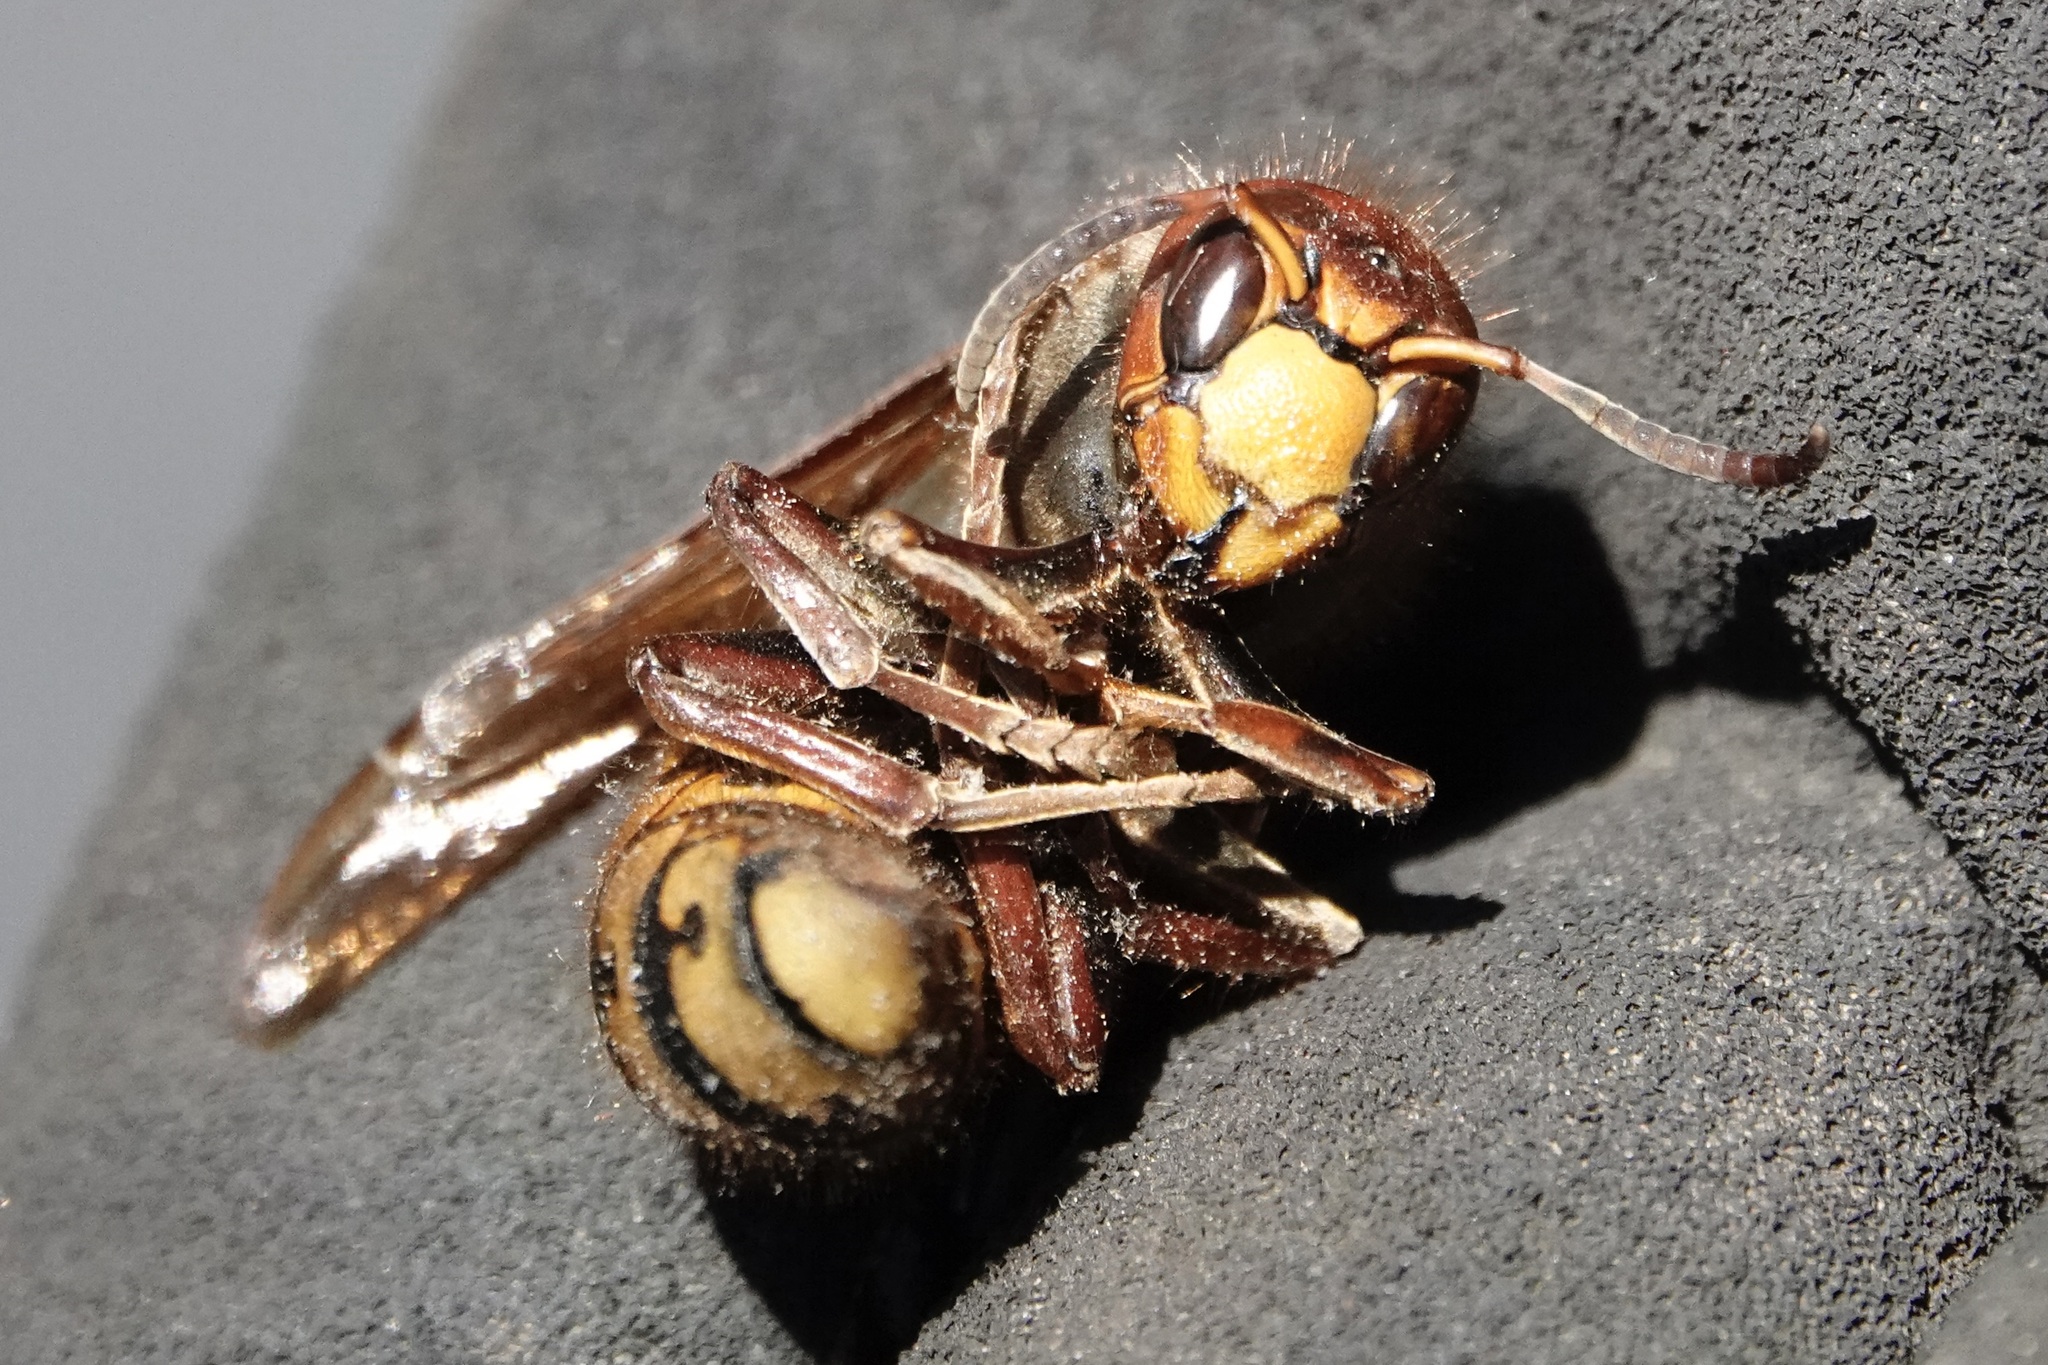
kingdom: Animalia
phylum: Arthropoda
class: Insecta
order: Hymenoptera
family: Vespidae
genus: Vespa
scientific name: Vespa crabro
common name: Hornet
